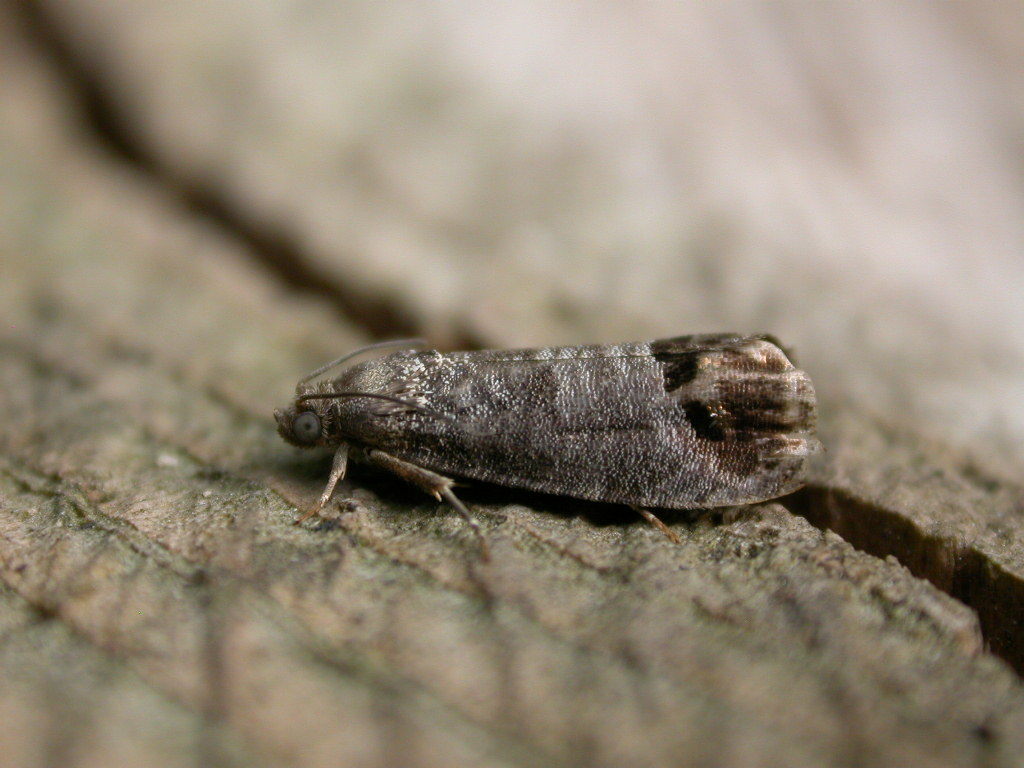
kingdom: Animalia
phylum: Arthropoda
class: Insecta
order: Lepidoptera
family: Tortricidae
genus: Cydia
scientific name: Cydia pomonella
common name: Codling moth
